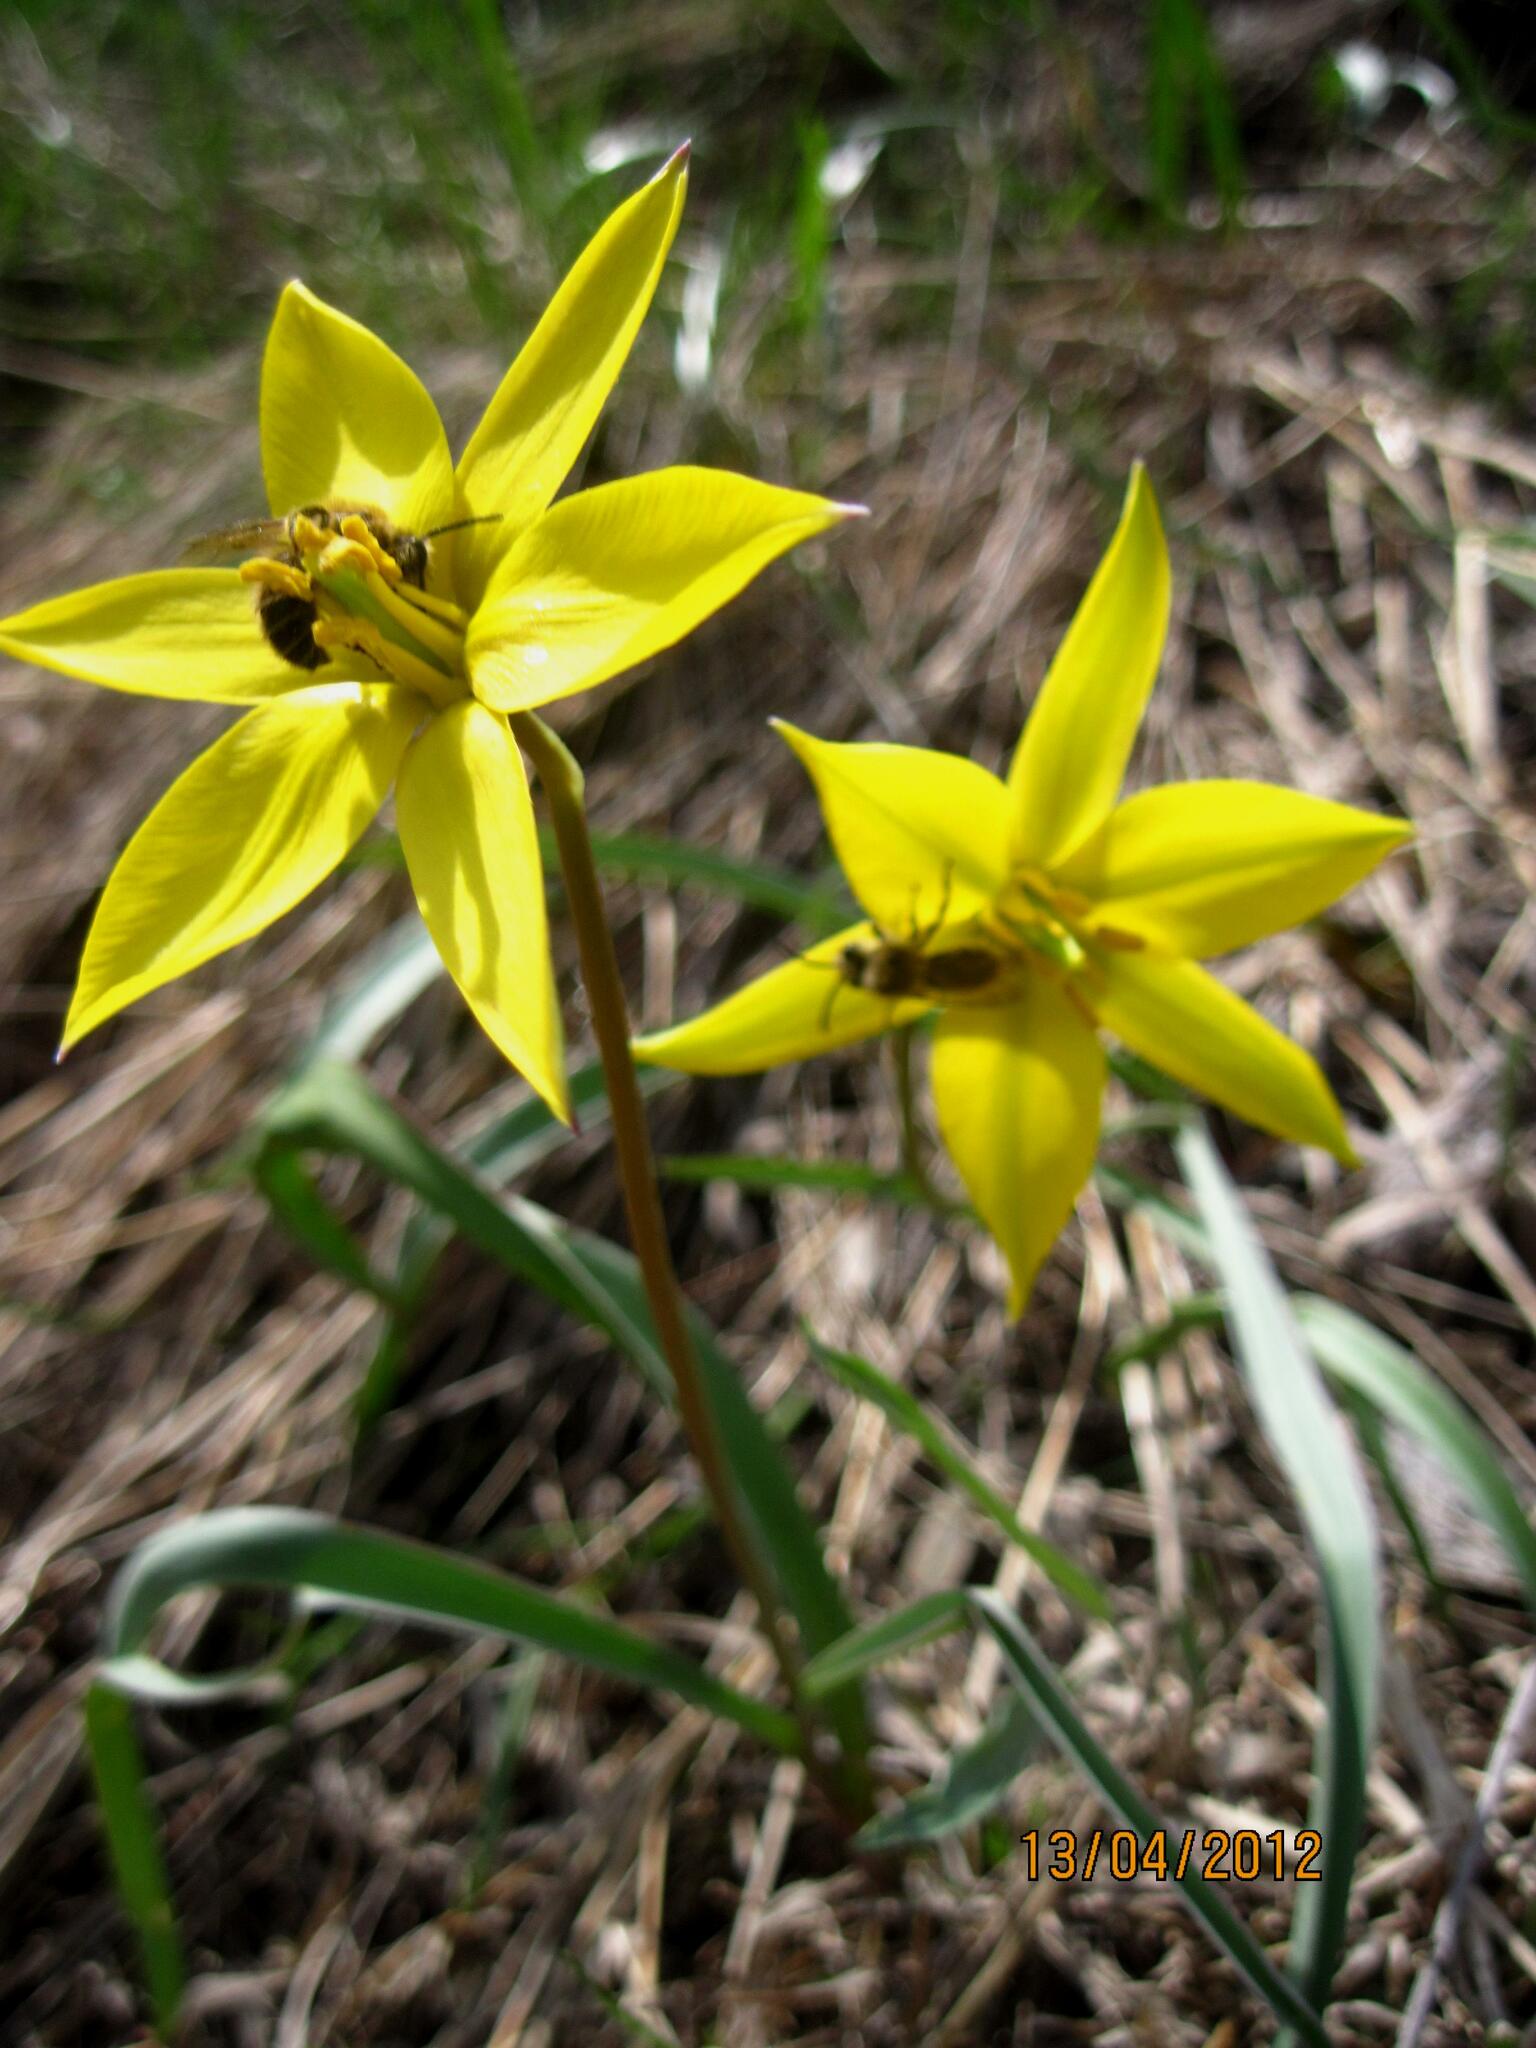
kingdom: Plantae
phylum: Tracheophyta
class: Liliopsida
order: Liliales
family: Liliaceae
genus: Tulipa
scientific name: Tulipa sylvestris
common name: Wild tulip
